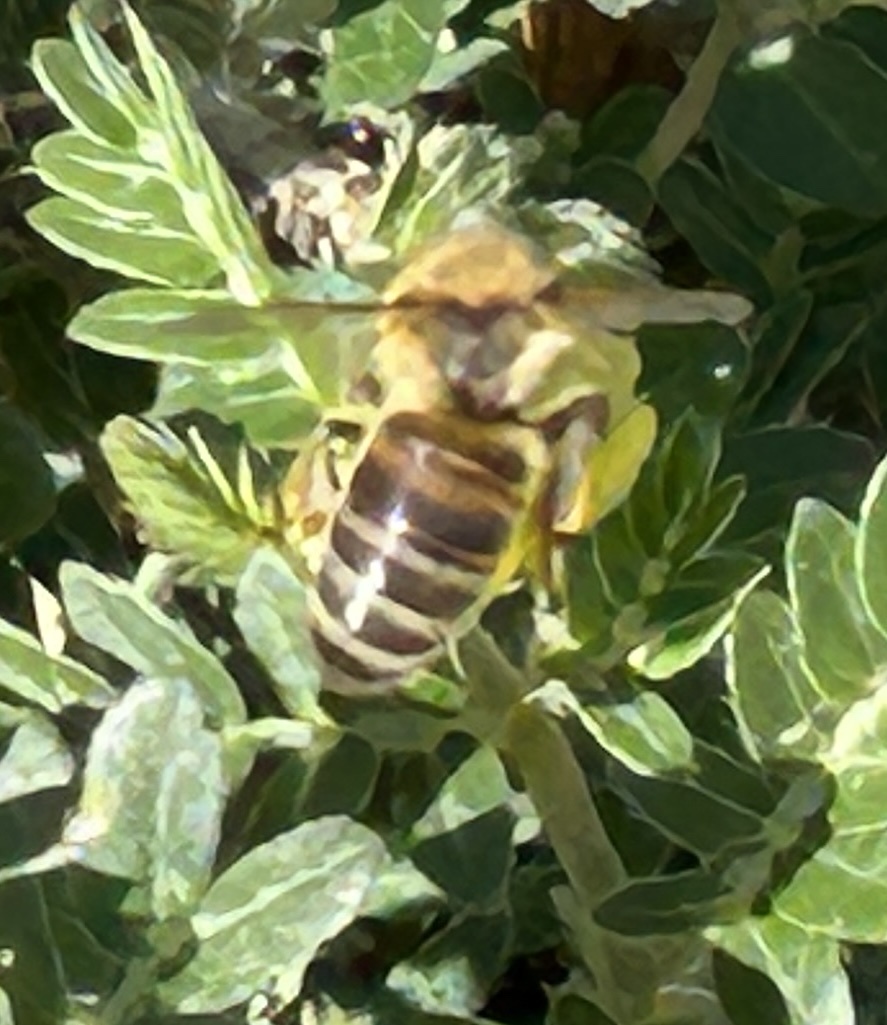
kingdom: Animalia
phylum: Arthropoda
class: Insecta
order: Hymenoptera
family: Apidae
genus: Apis
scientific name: Apis mellifera
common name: Honey bee
